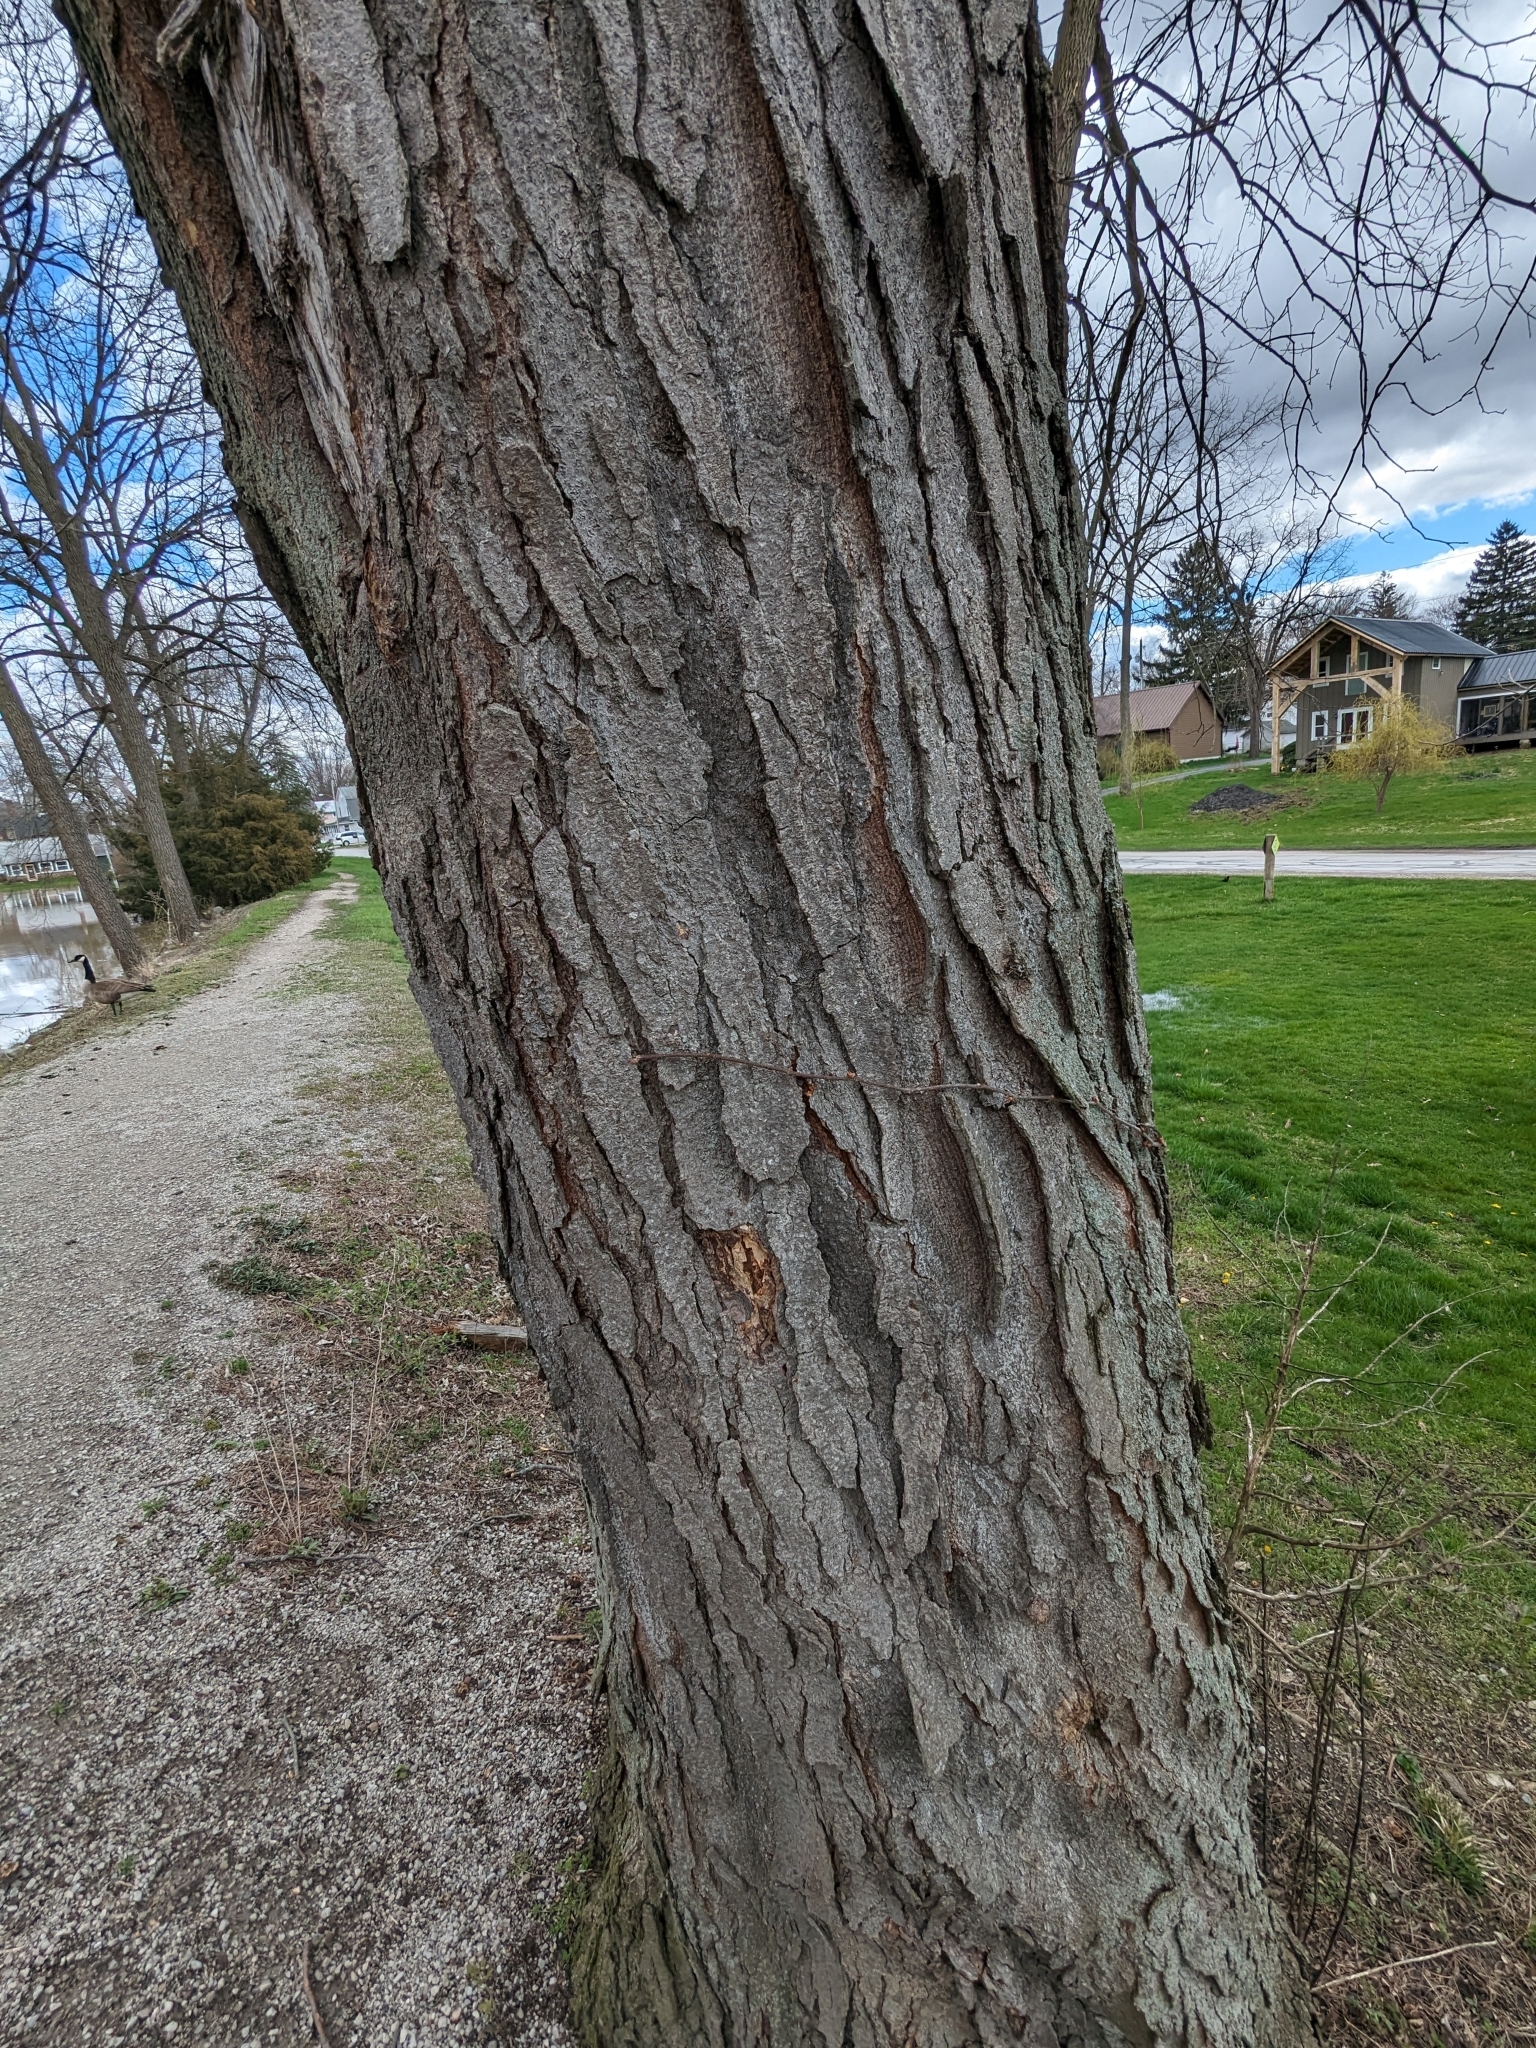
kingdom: Plantae
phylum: Tracheophyta
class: Magnoliopsida
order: Saxifragales
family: Altingiaceae
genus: Liquidambar
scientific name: Liquidambar styraciflua
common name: Sweet gum
